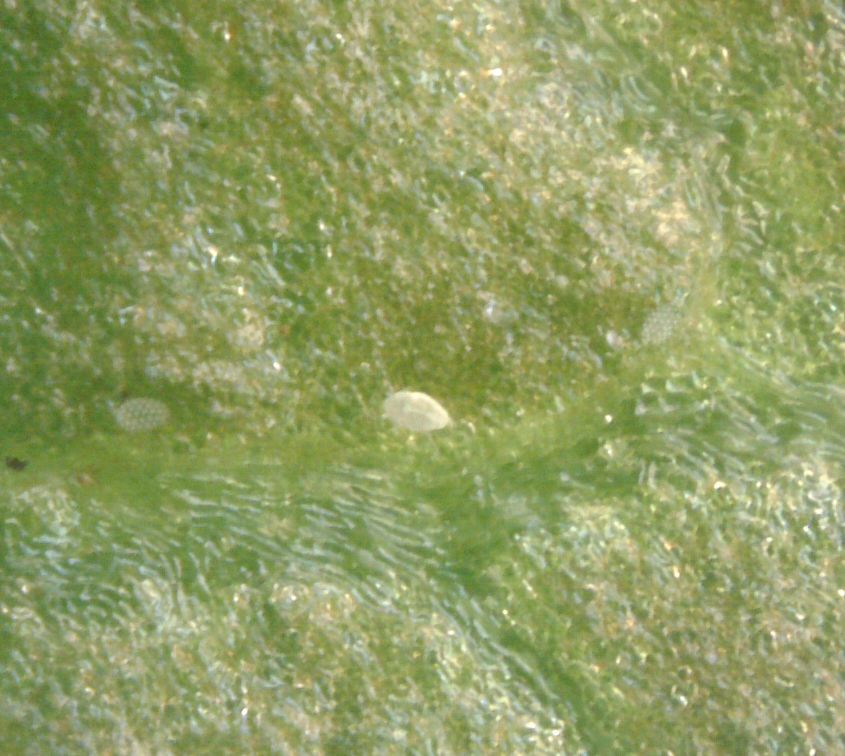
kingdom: Animalia
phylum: Arthropoda
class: Arachnida
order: Trombidiformes
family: Tarsonemidae
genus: Polyphagotarsonemus
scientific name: Polyphagotarsonemus latus
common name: Mite
